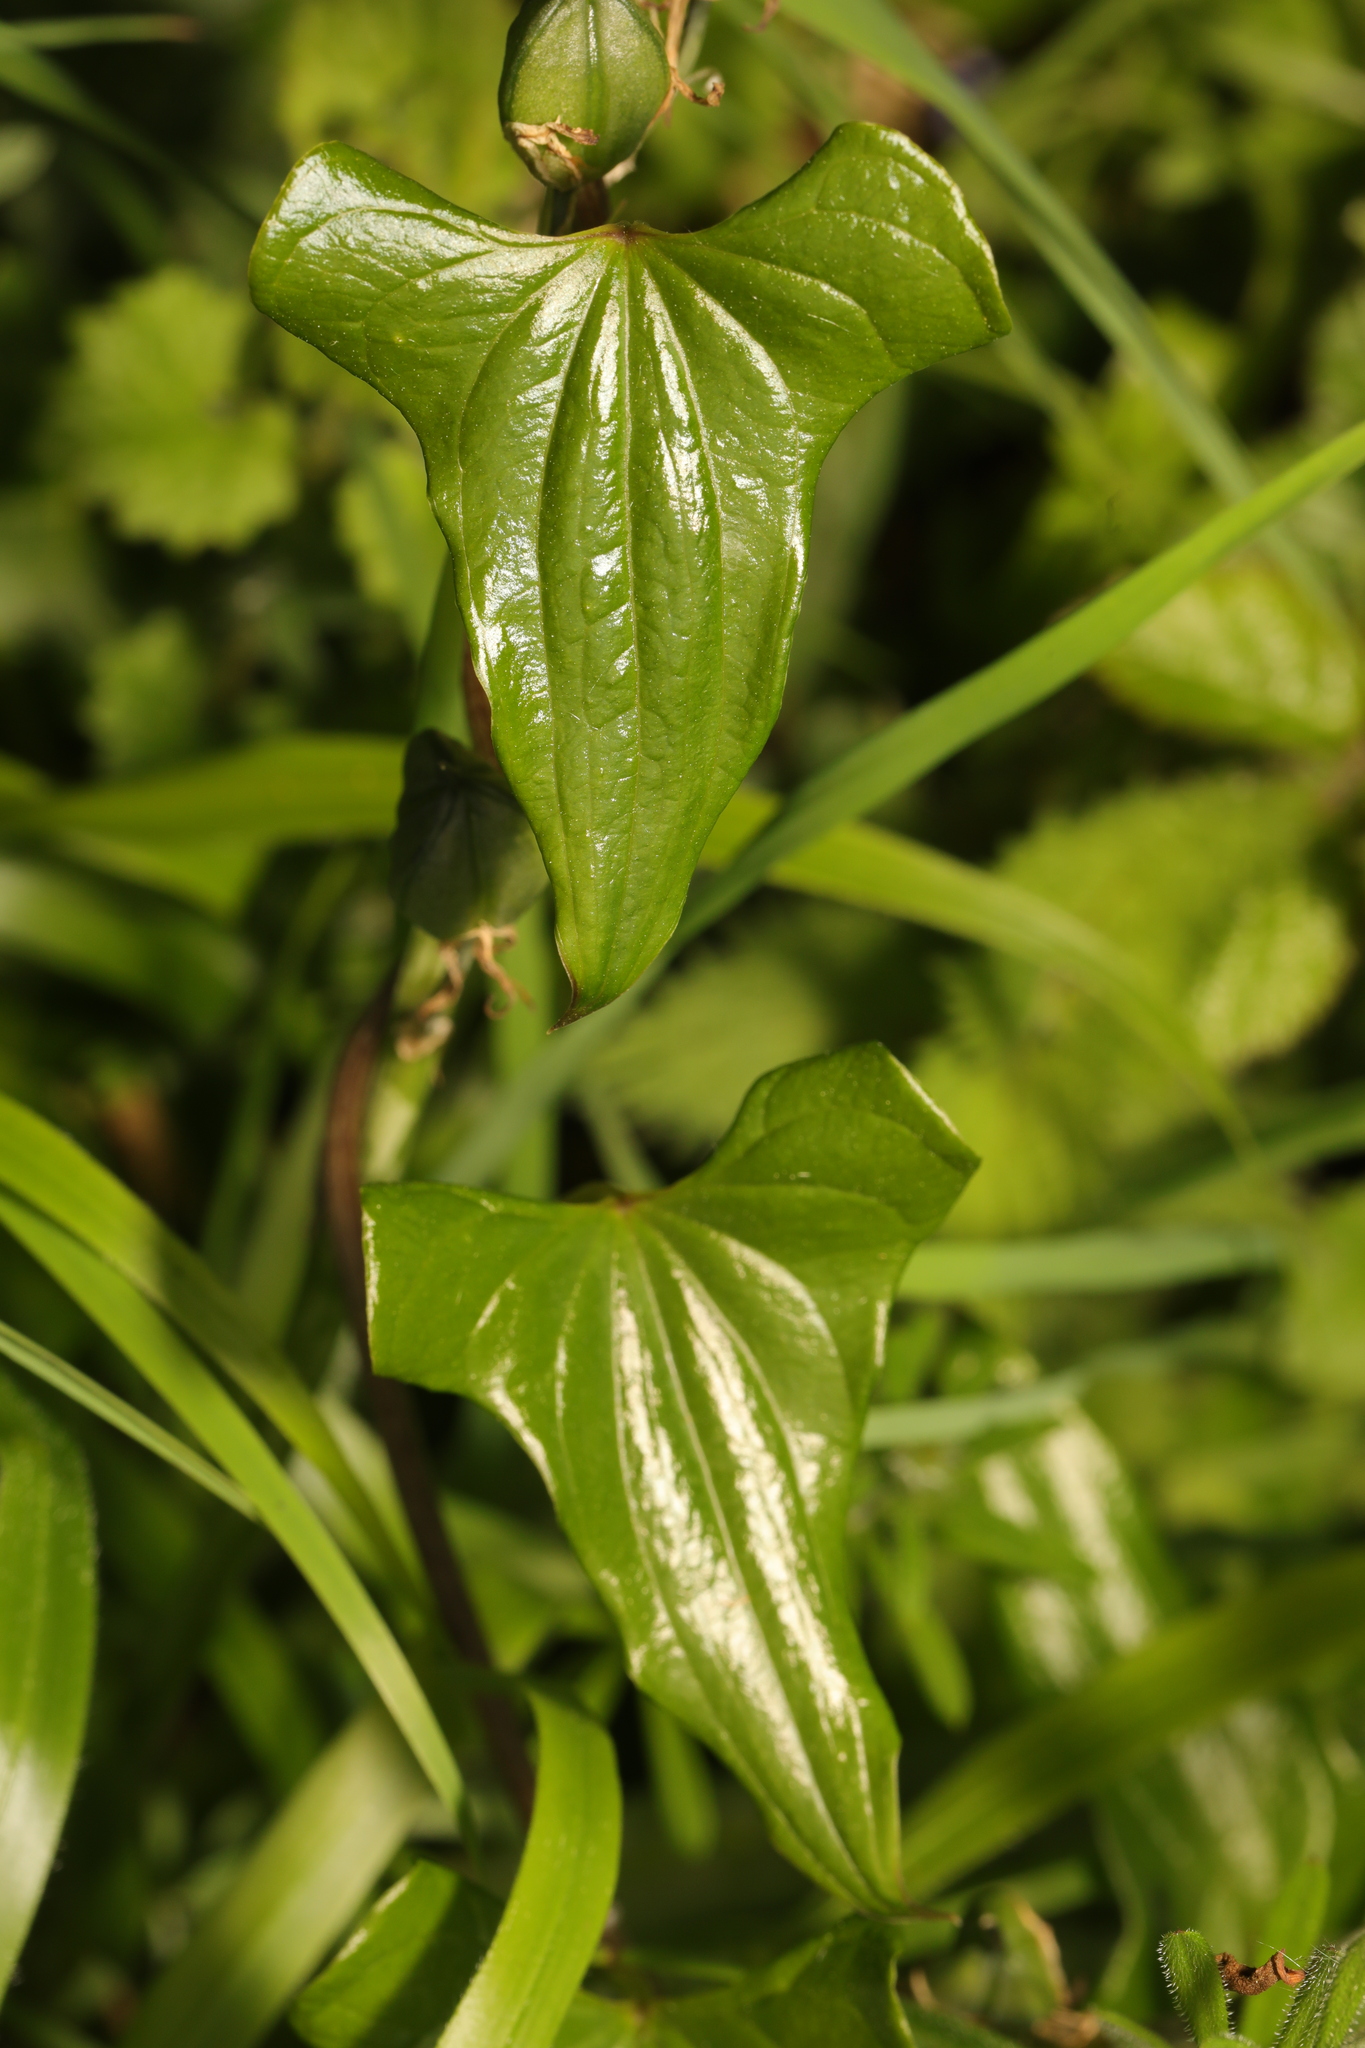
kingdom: Plantae
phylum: Tracheophyta
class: Liliopsida
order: Dioscoreales
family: Dioscoreaceae
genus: Dioscorea
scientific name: Dioscorea communis
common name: Black-bindweed
